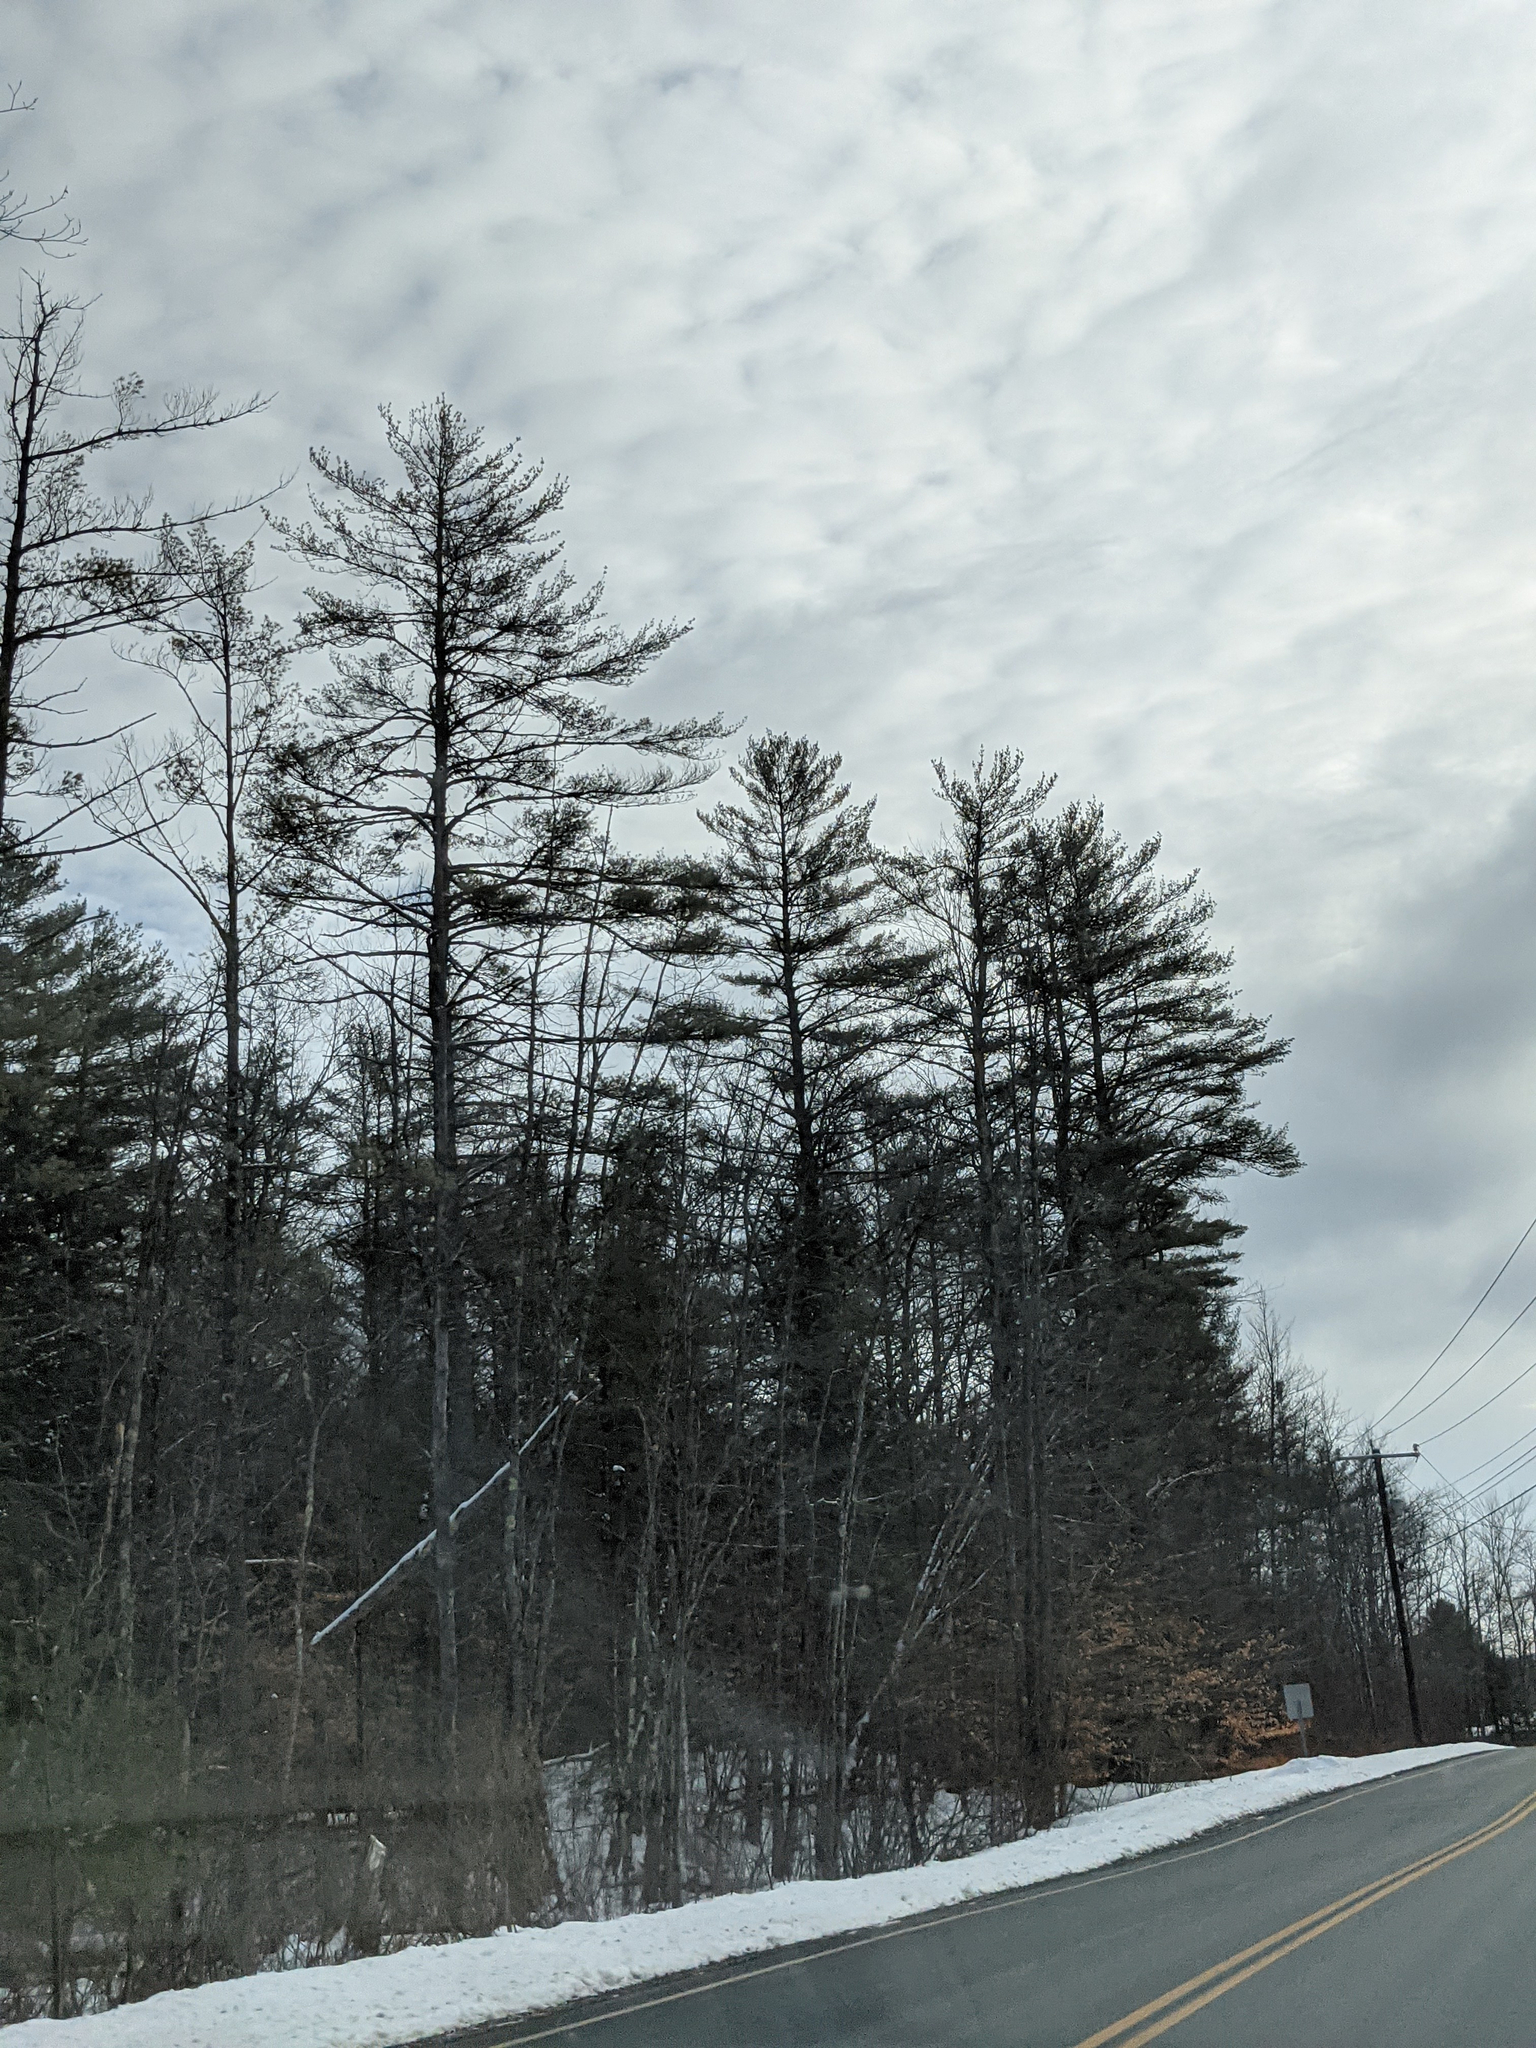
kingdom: Plantae
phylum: Tracheophyta
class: Pinopsida
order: Pinales
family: Pinaceae
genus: Pinus
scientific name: Pinus strobus
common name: Weymouth pine
